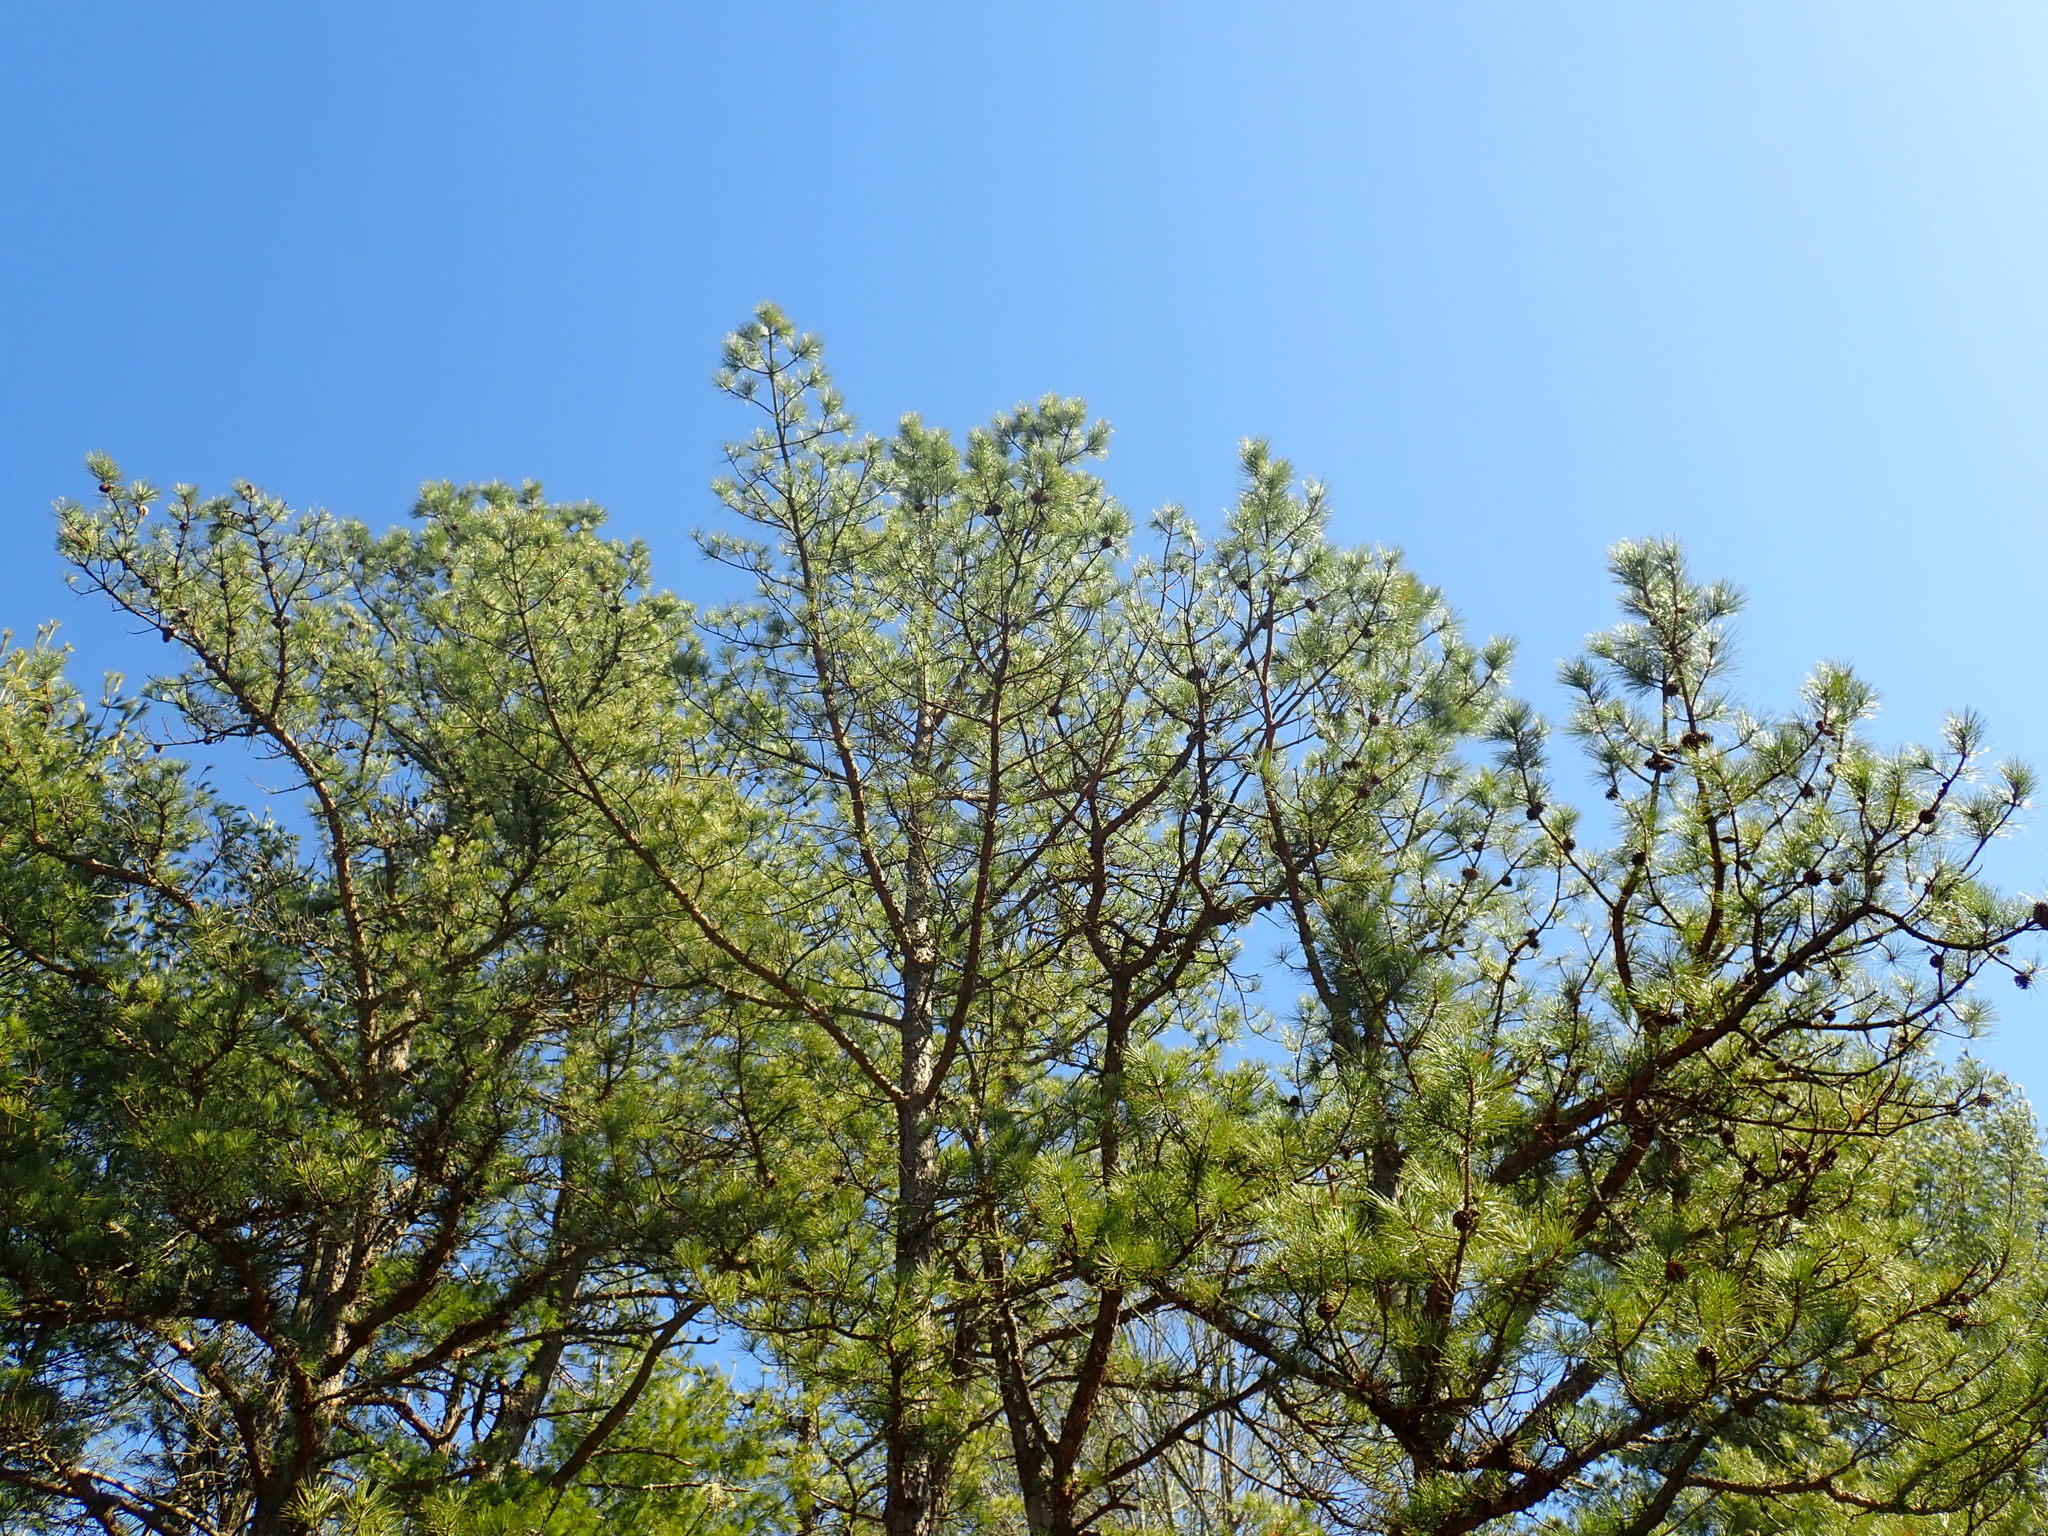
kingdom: Plantae
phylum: Tracheophyta
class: Pinopsida
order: Pinales
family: Pinaceae
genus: Pinus
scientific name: Pinus rigida
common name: Pitch pine
